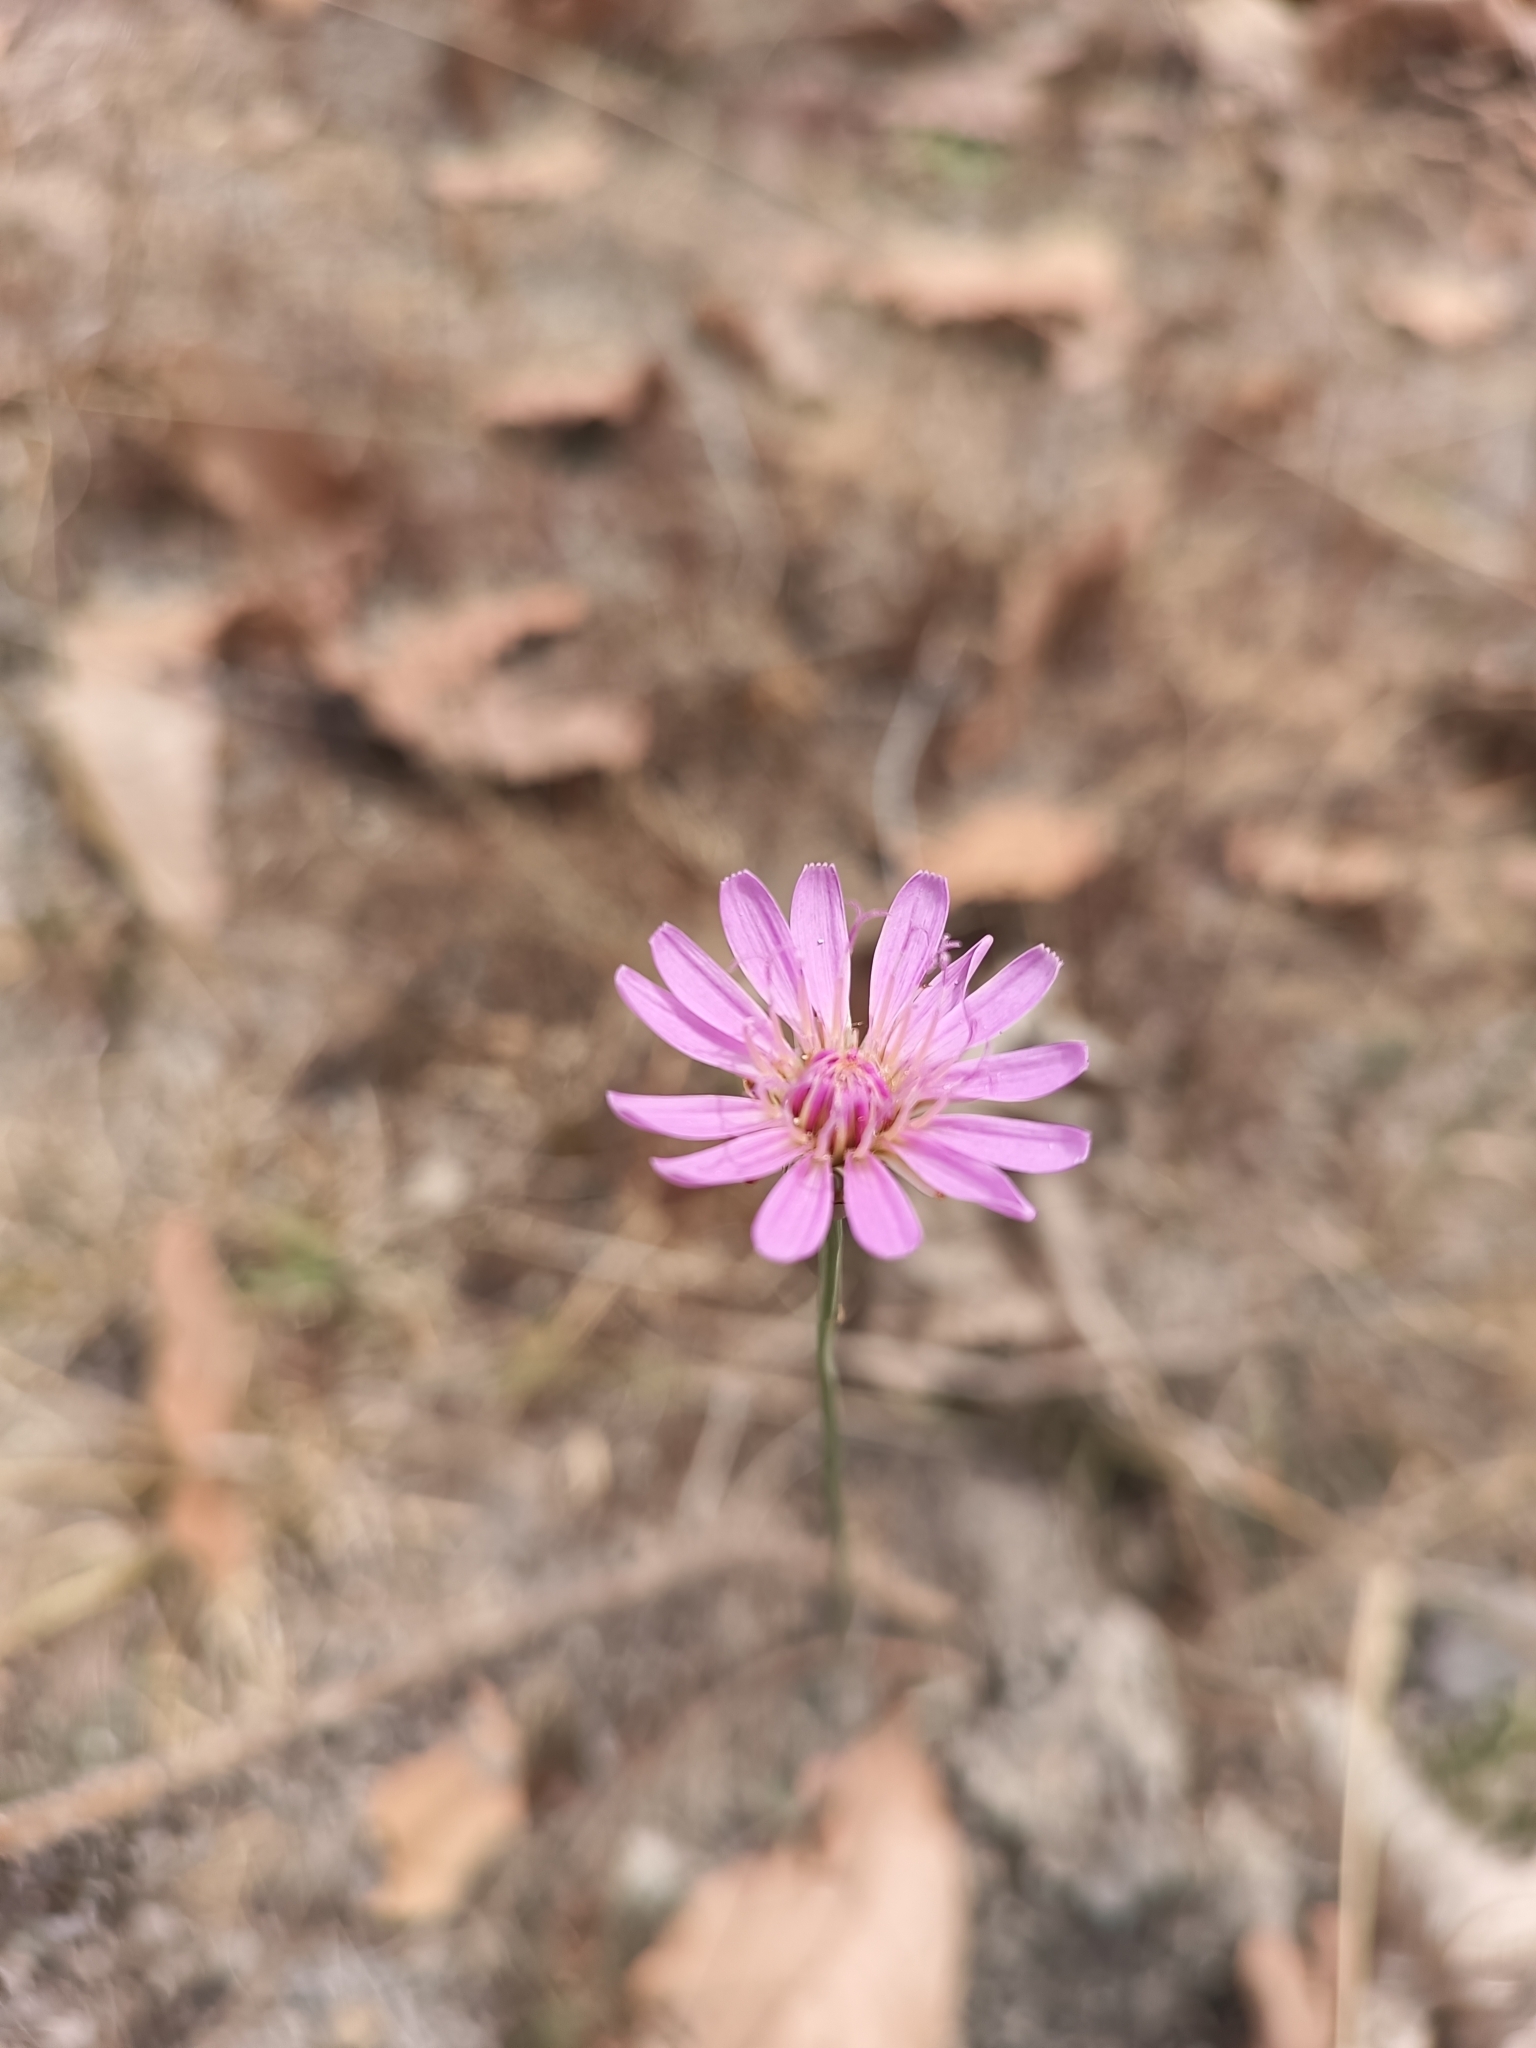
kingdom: Plantae
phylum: Tracheophyta
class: Magnoliopsida
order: Asterales
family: Asteraceae
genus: Pinaropappus
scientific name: Pinaropappus roseus
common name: Rock-lettuce
